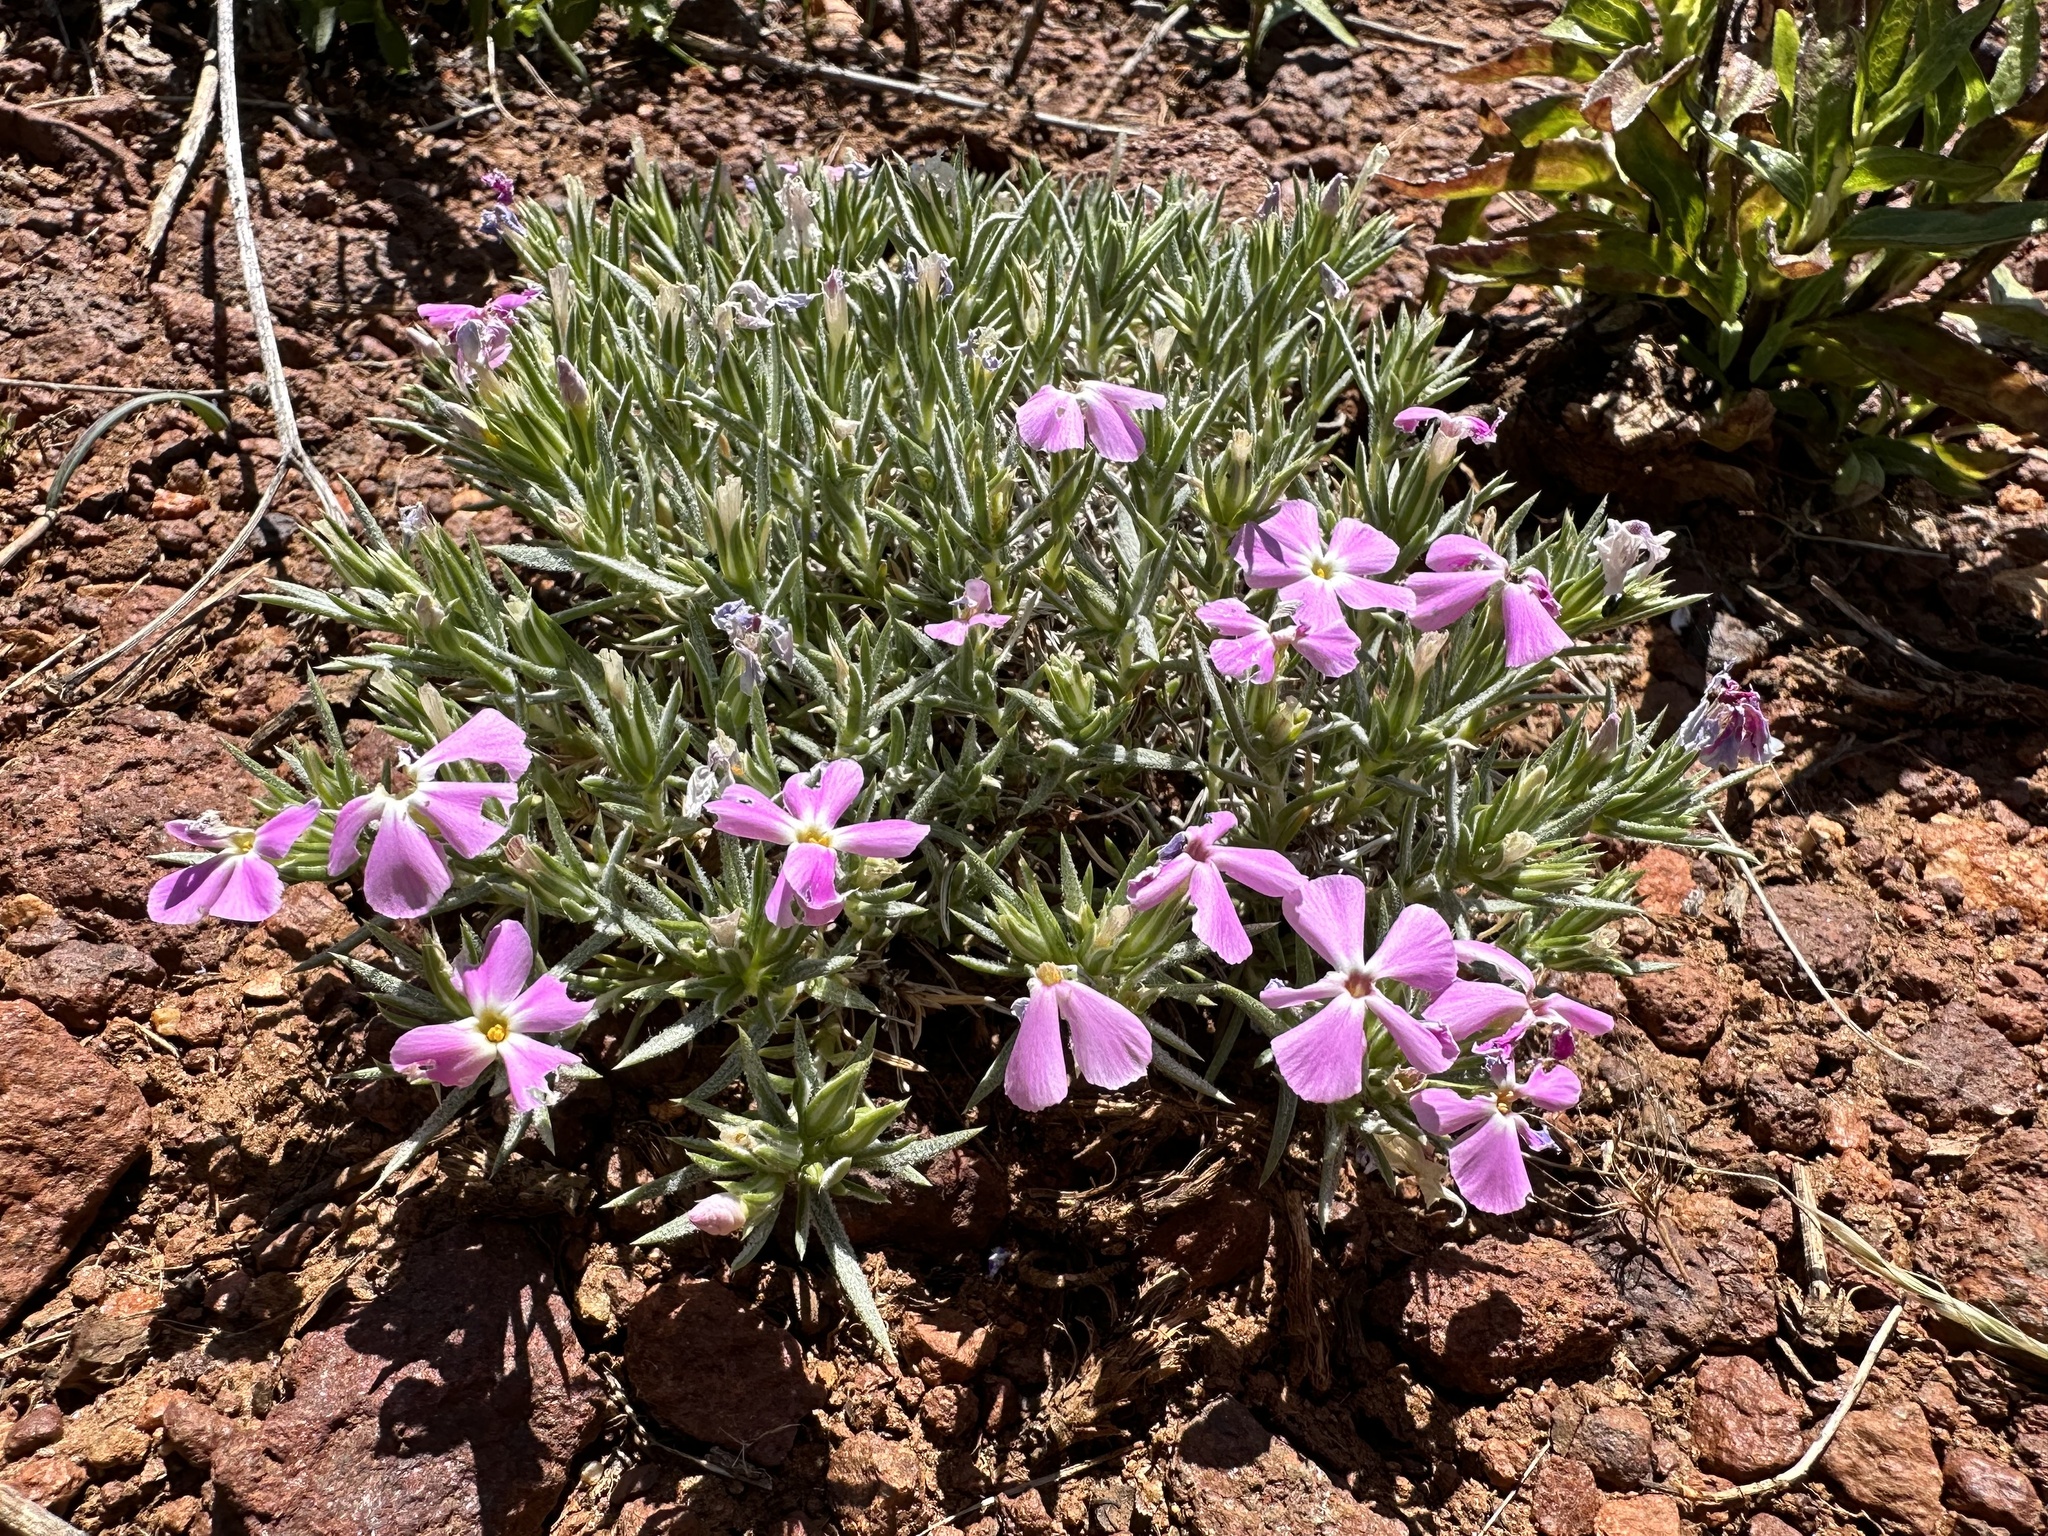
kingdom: Plantae
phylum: Tracheophyta
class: Magnoliopsida
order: Ericales
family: Polemoniaceae
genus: Phlox
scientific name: Phlox austromontana
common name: Desert phlox
